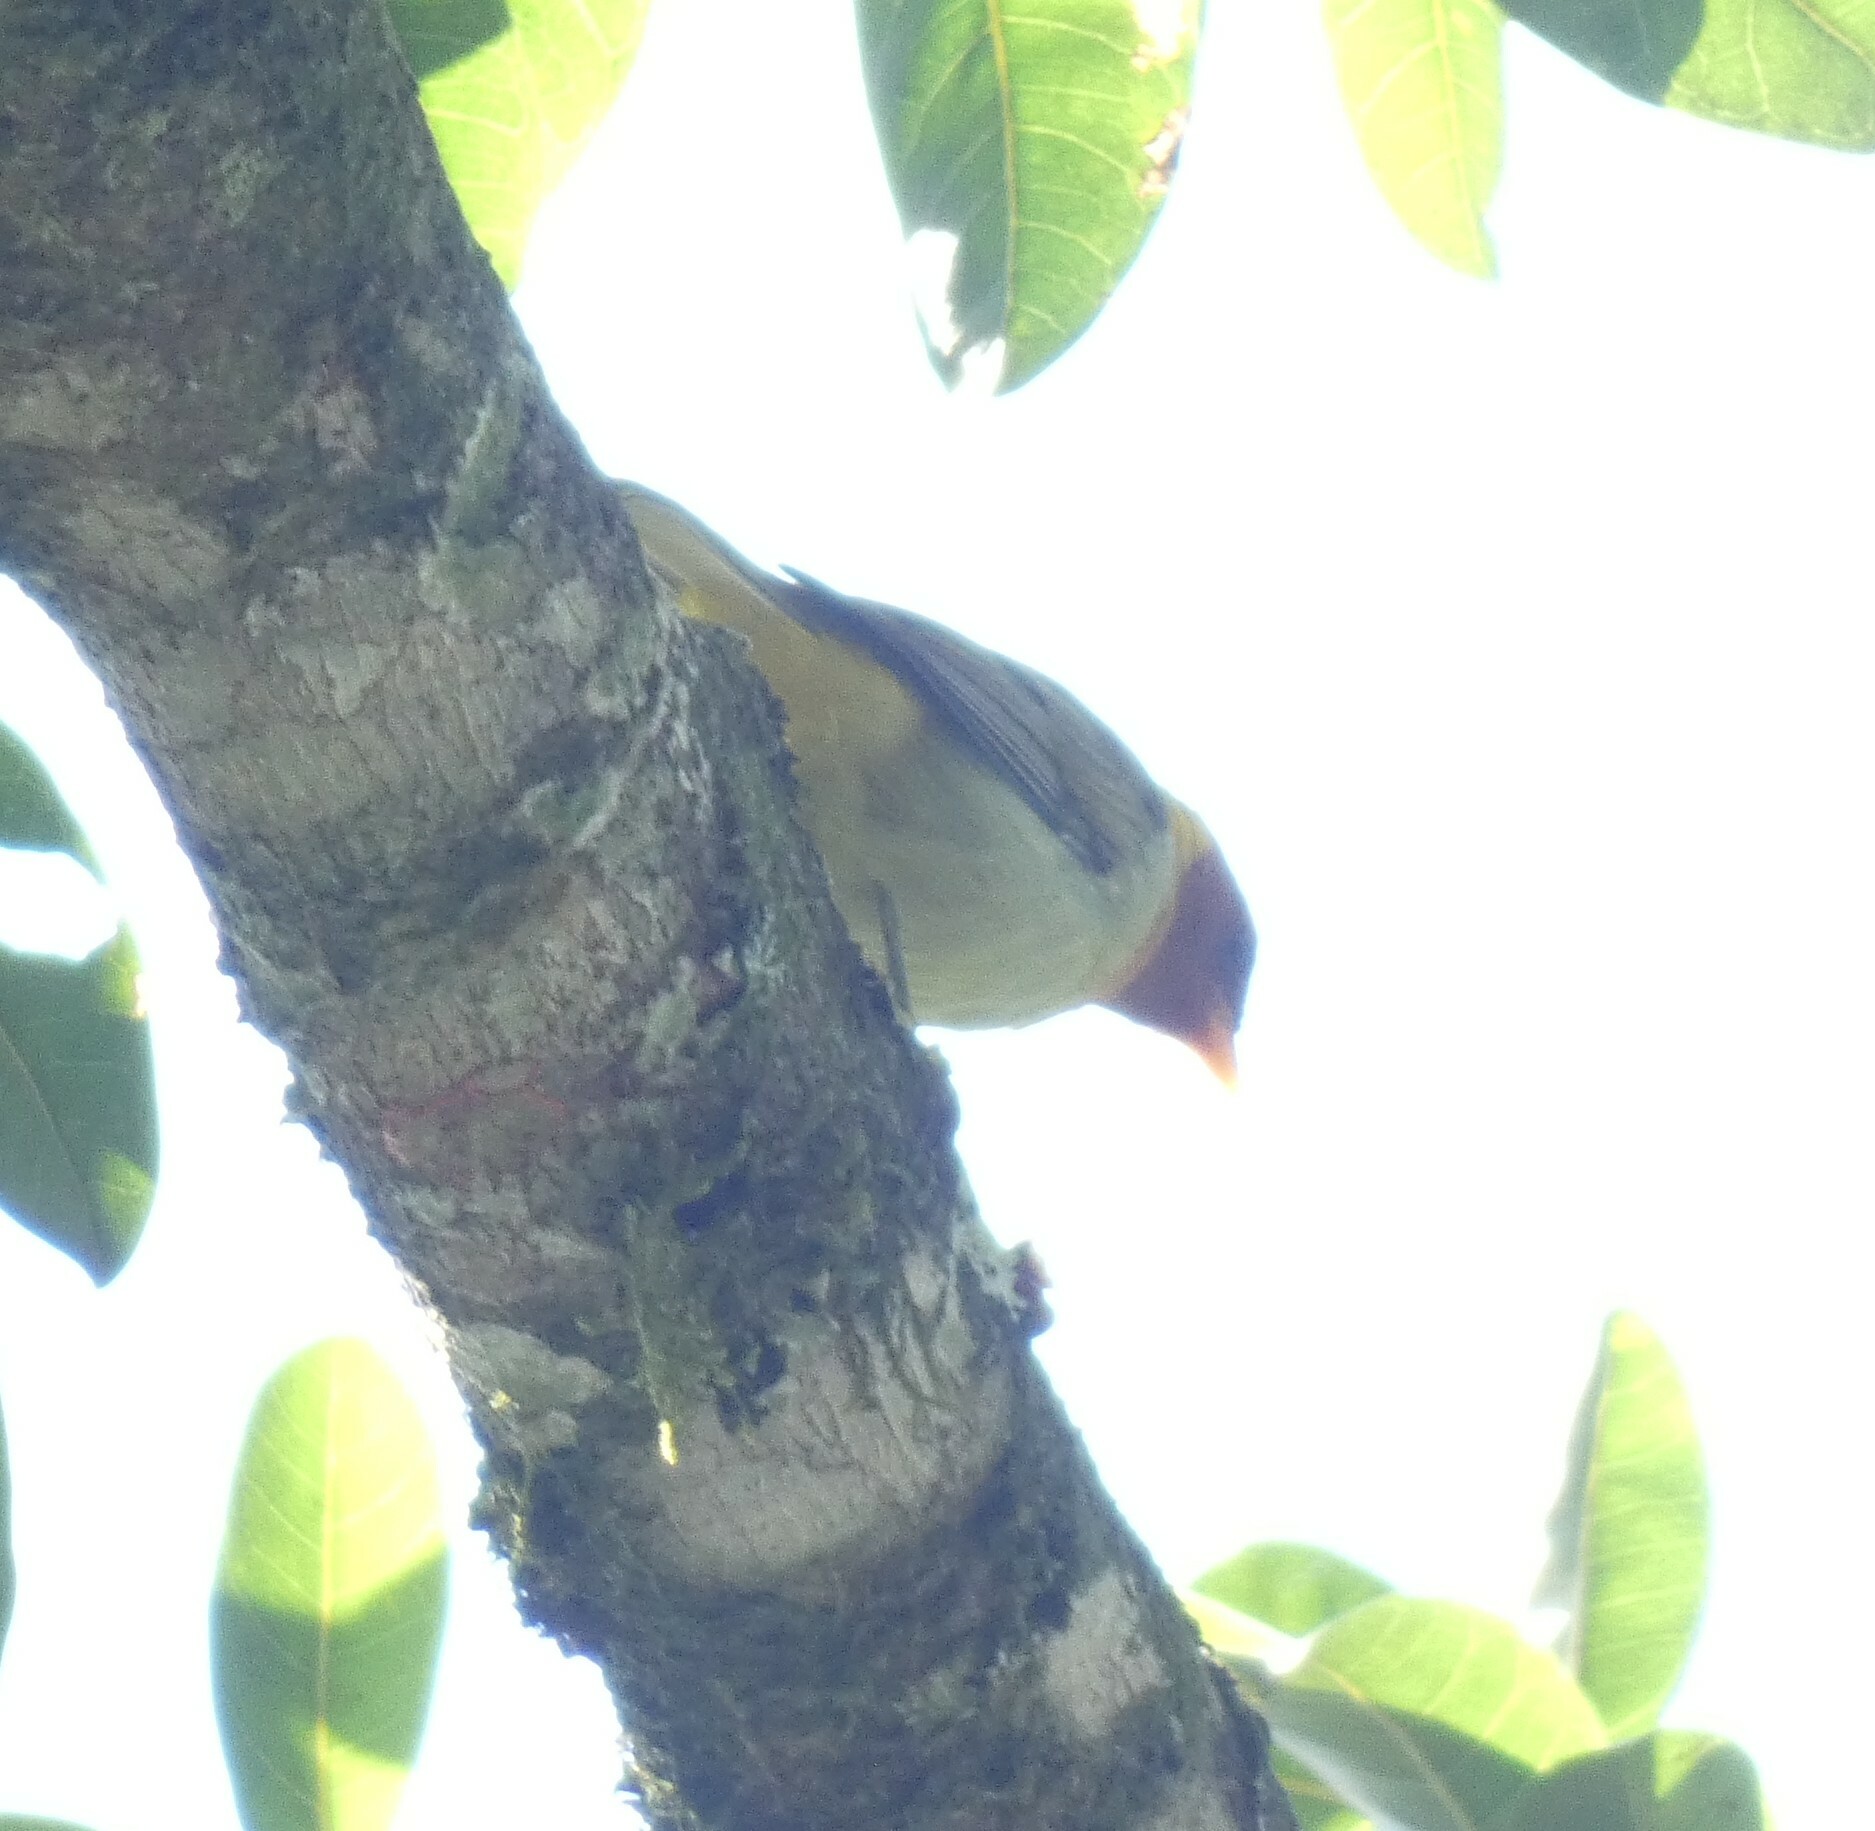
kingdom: Animalia
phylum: Chordata
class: Aves
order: Passeriformes
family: Thraupidae
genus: Hemithraupis
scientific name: Hemithraupis ruficapilla
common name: Rufous-headed tanager
